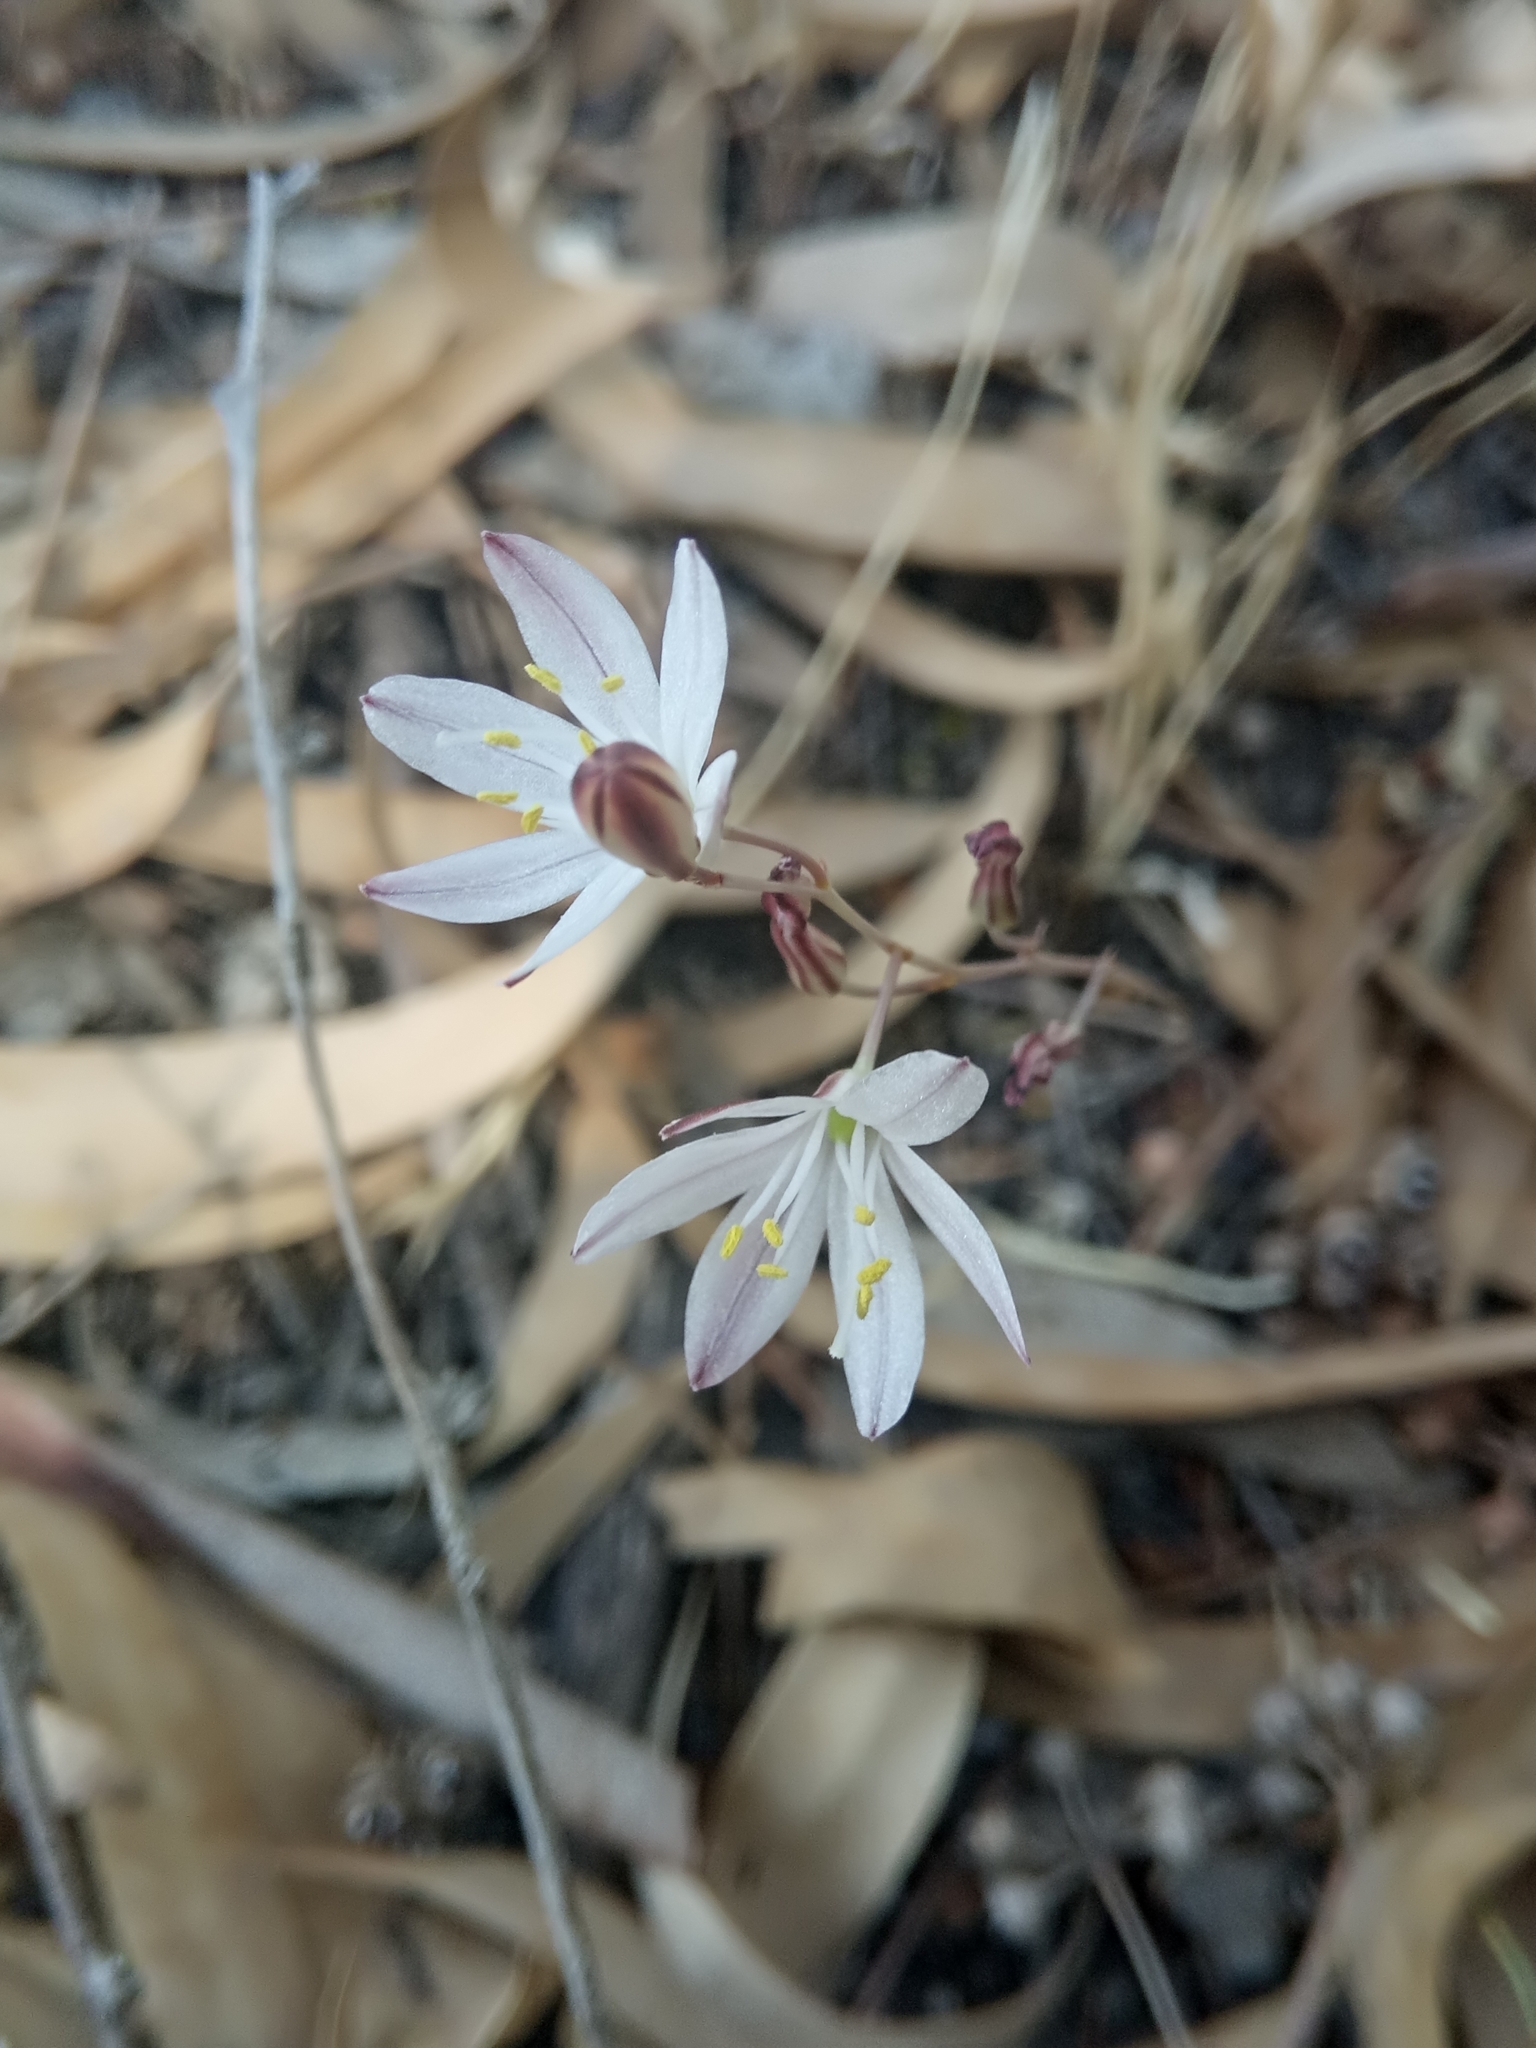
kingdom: Plantae
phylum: Tracheophyta
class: Liliopsida
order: Asparagales
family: Asparagaceae
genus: Drimia
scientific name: Drimia fugax
